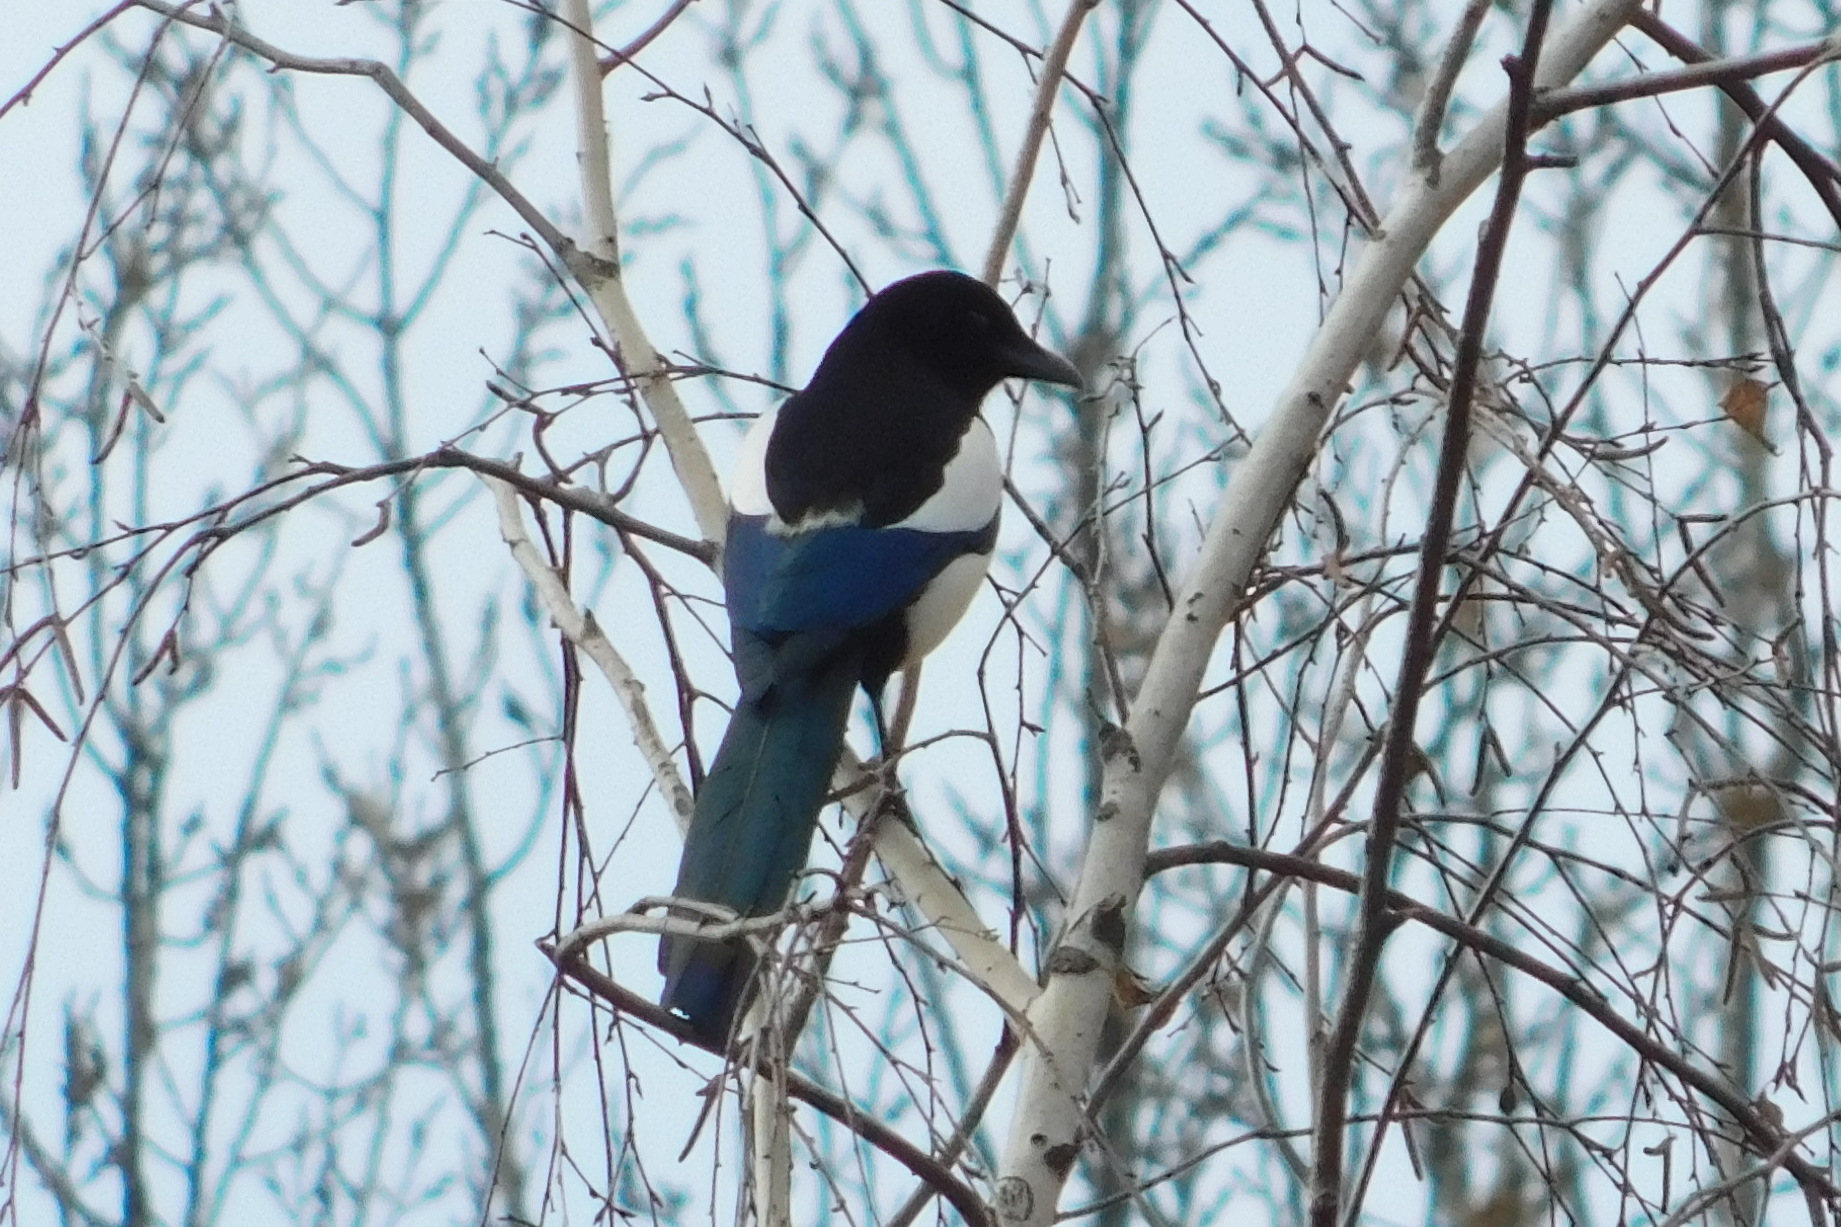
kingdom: Animalia
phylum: Chordata
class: Aves
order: Passeriformes
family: Corvidae
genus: Pica
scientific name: Pica pica
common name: Eurasian magpie
